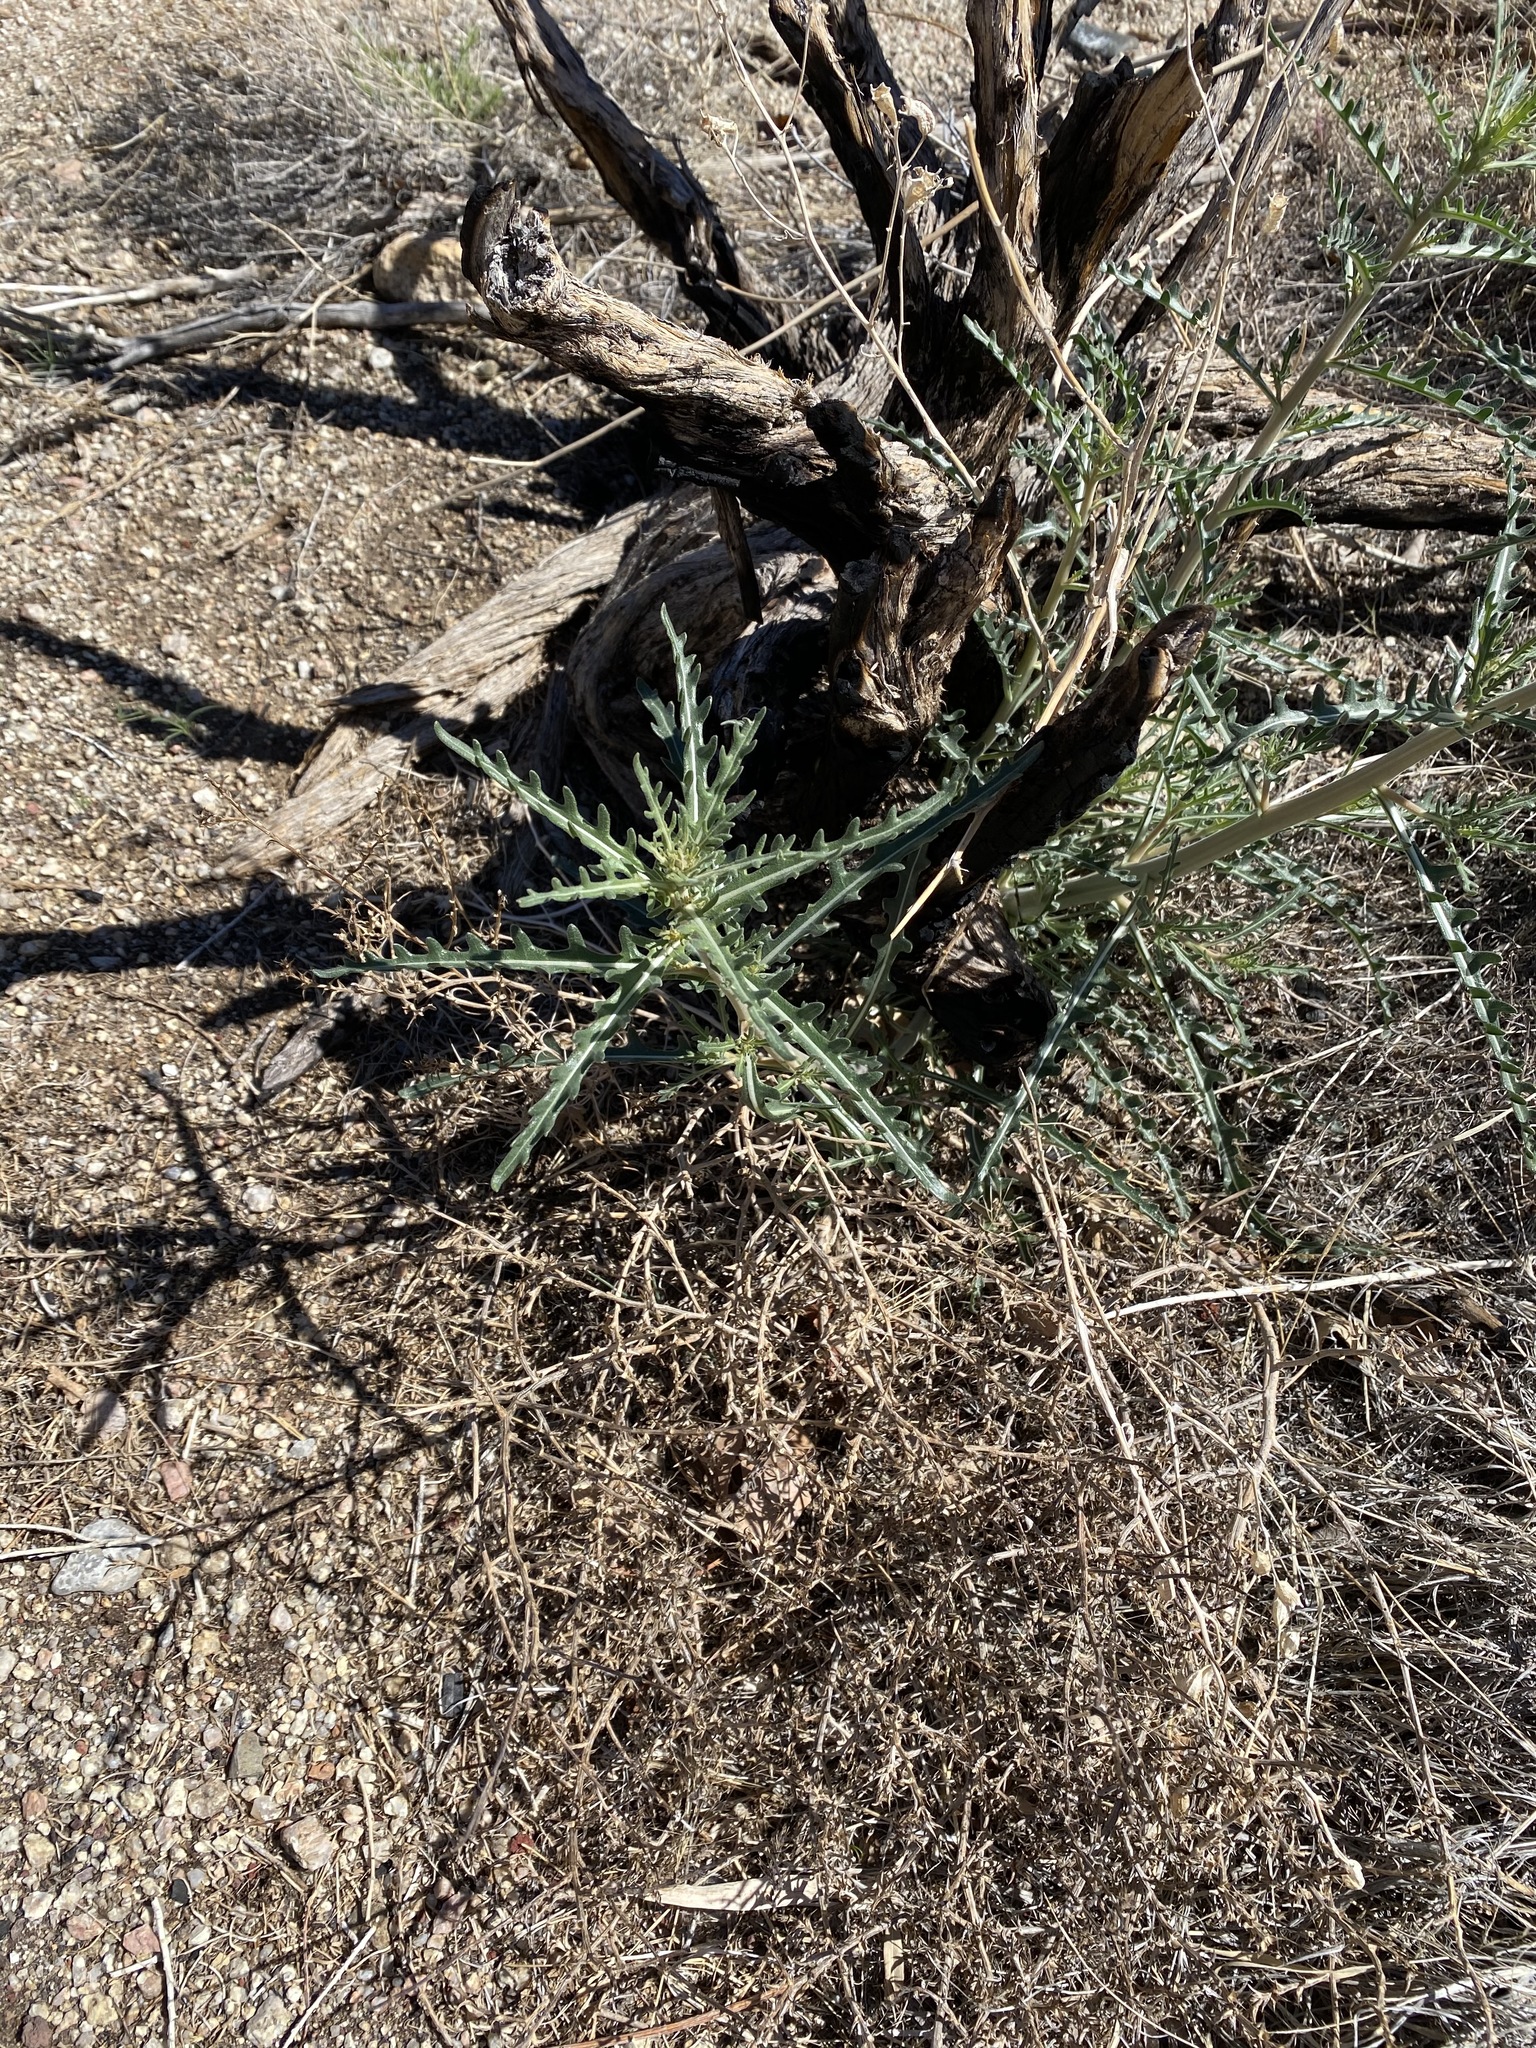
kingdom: Plantae
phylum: Tracheophyta
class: Magnoliopsida
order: Cornales
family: Loasaceae
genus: Mentzelia
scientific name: Mentzelia multiflora
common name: Adonis blazingstar
